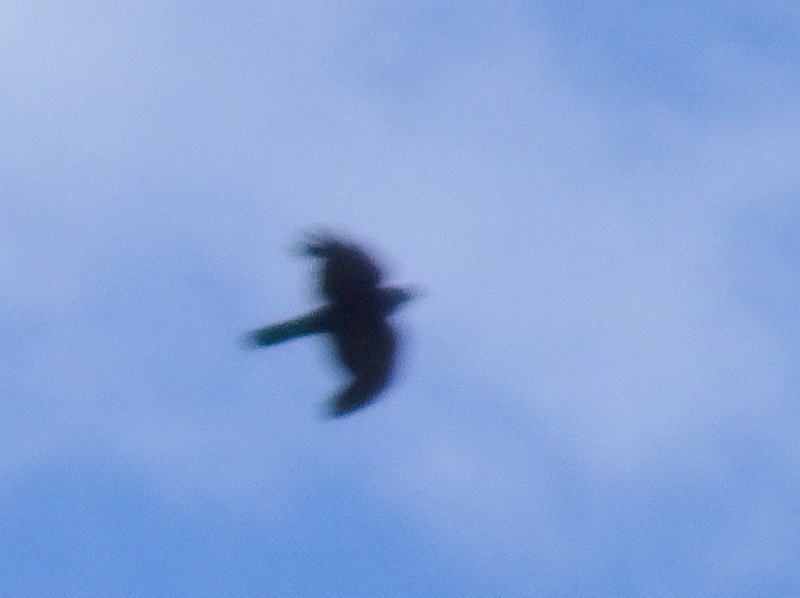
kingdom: Animalia
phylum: Chordata
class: Aves
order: Passeriformes
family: Corvidae
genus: Pyrrhocorax
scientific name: Pyrrhocorax graculus
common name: Alpine chough
